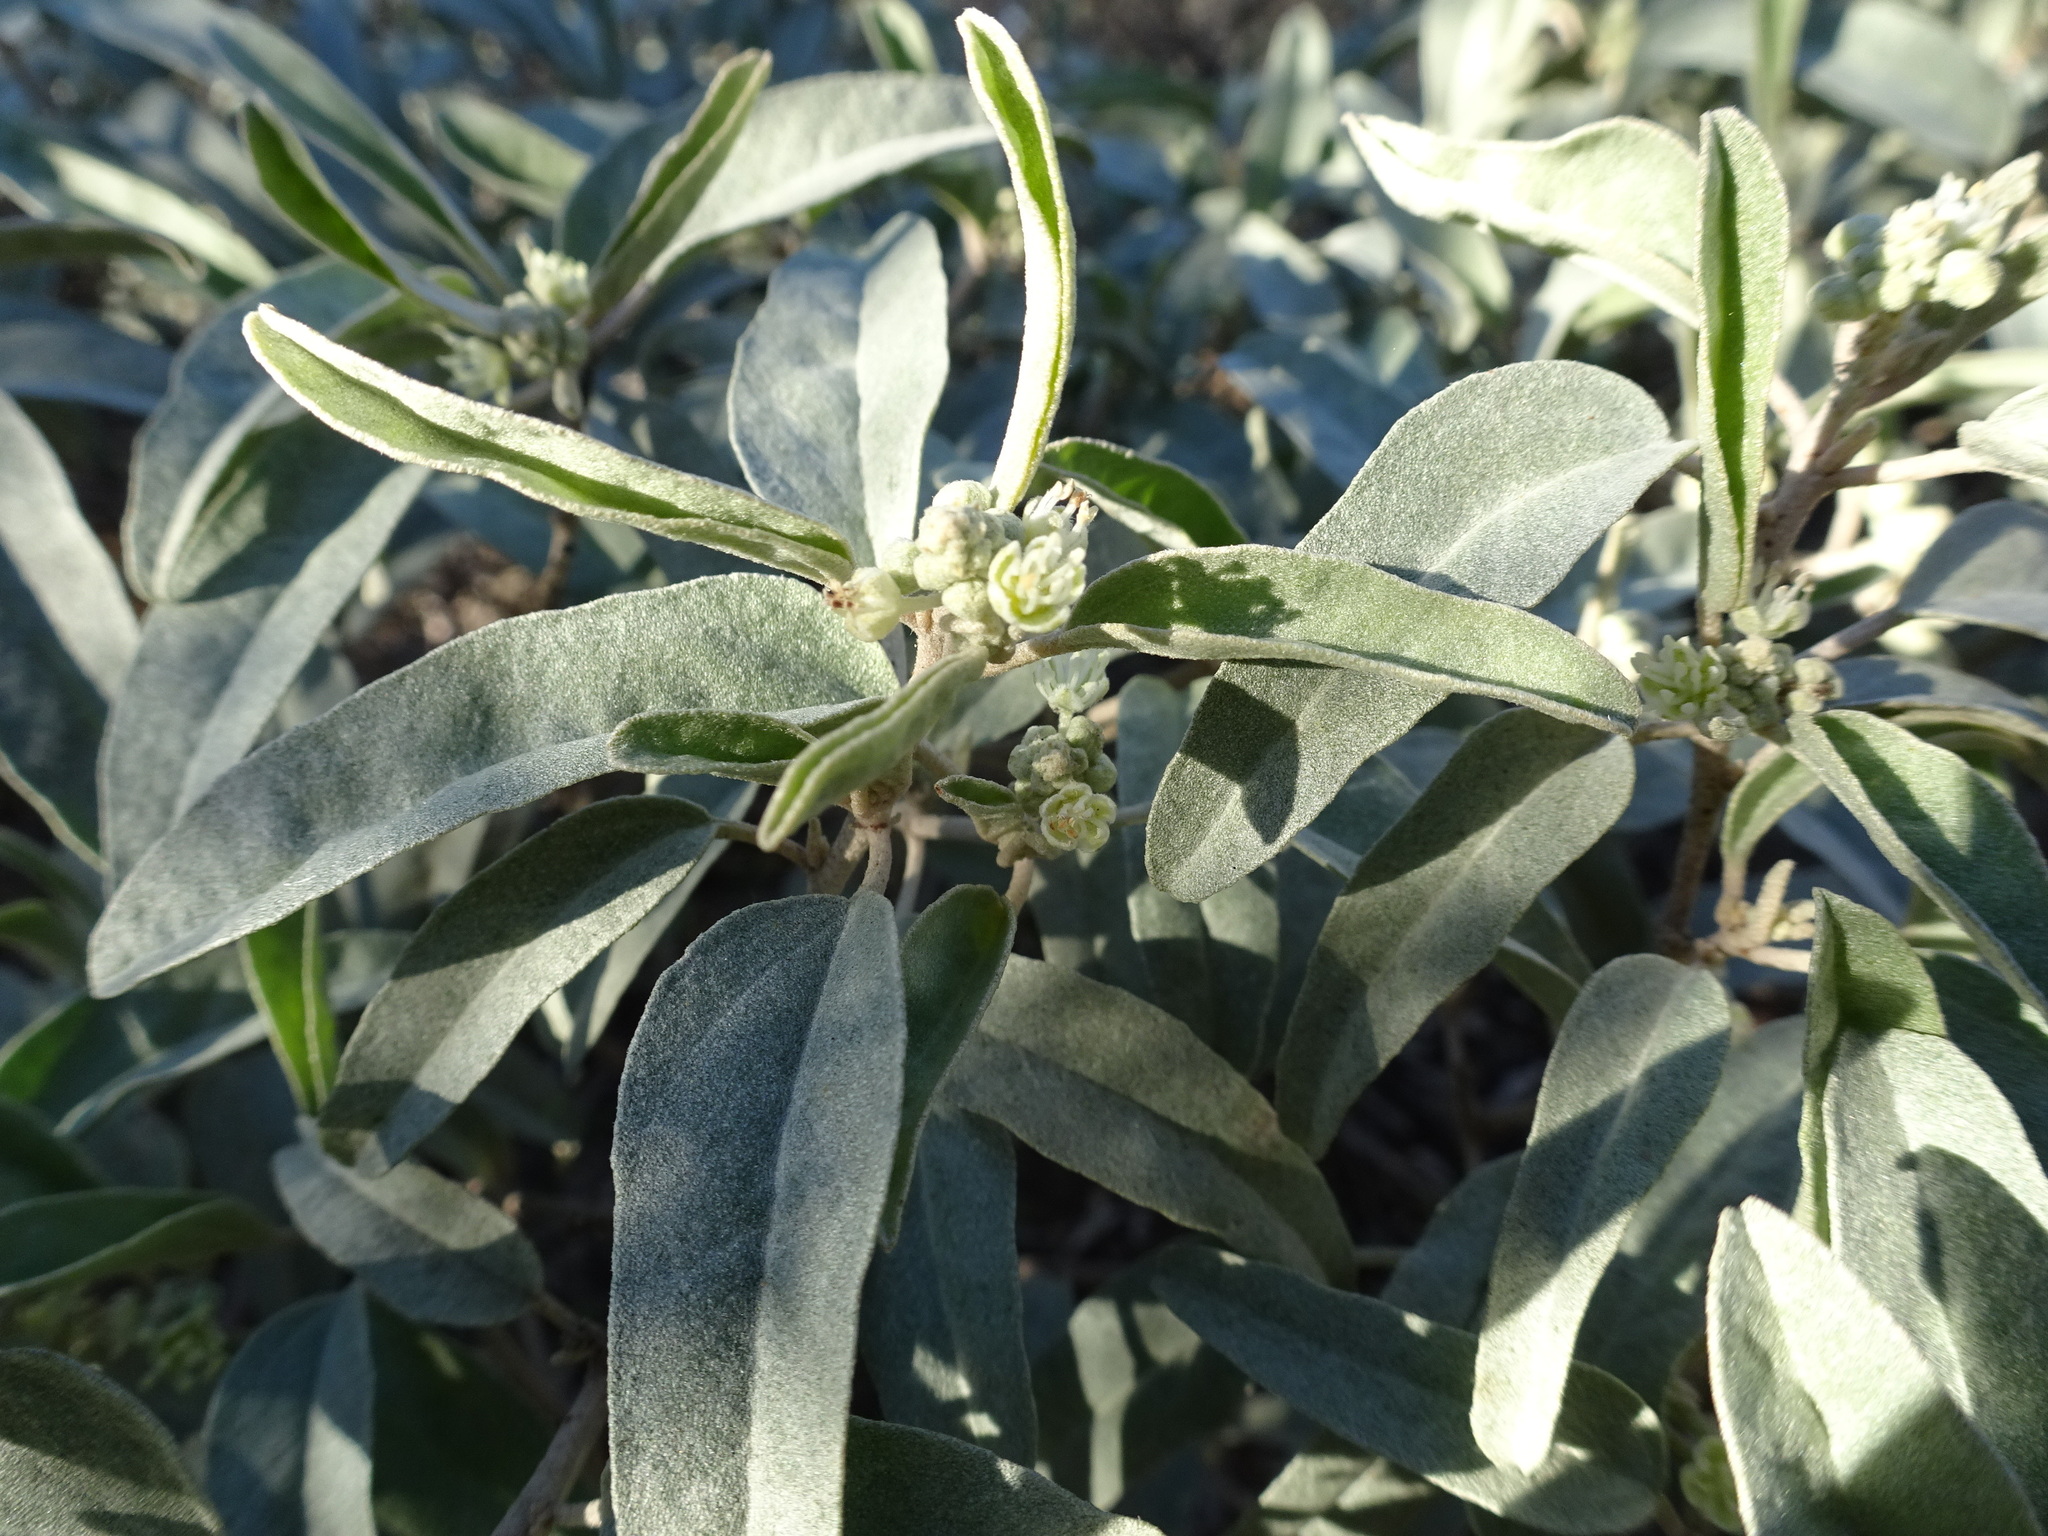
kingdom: Plantae
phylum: Tracheophyta
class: Magnoliopsida
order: Malpighiales
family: Euphorbiaceae
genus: Croton
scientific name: Croton californicus
